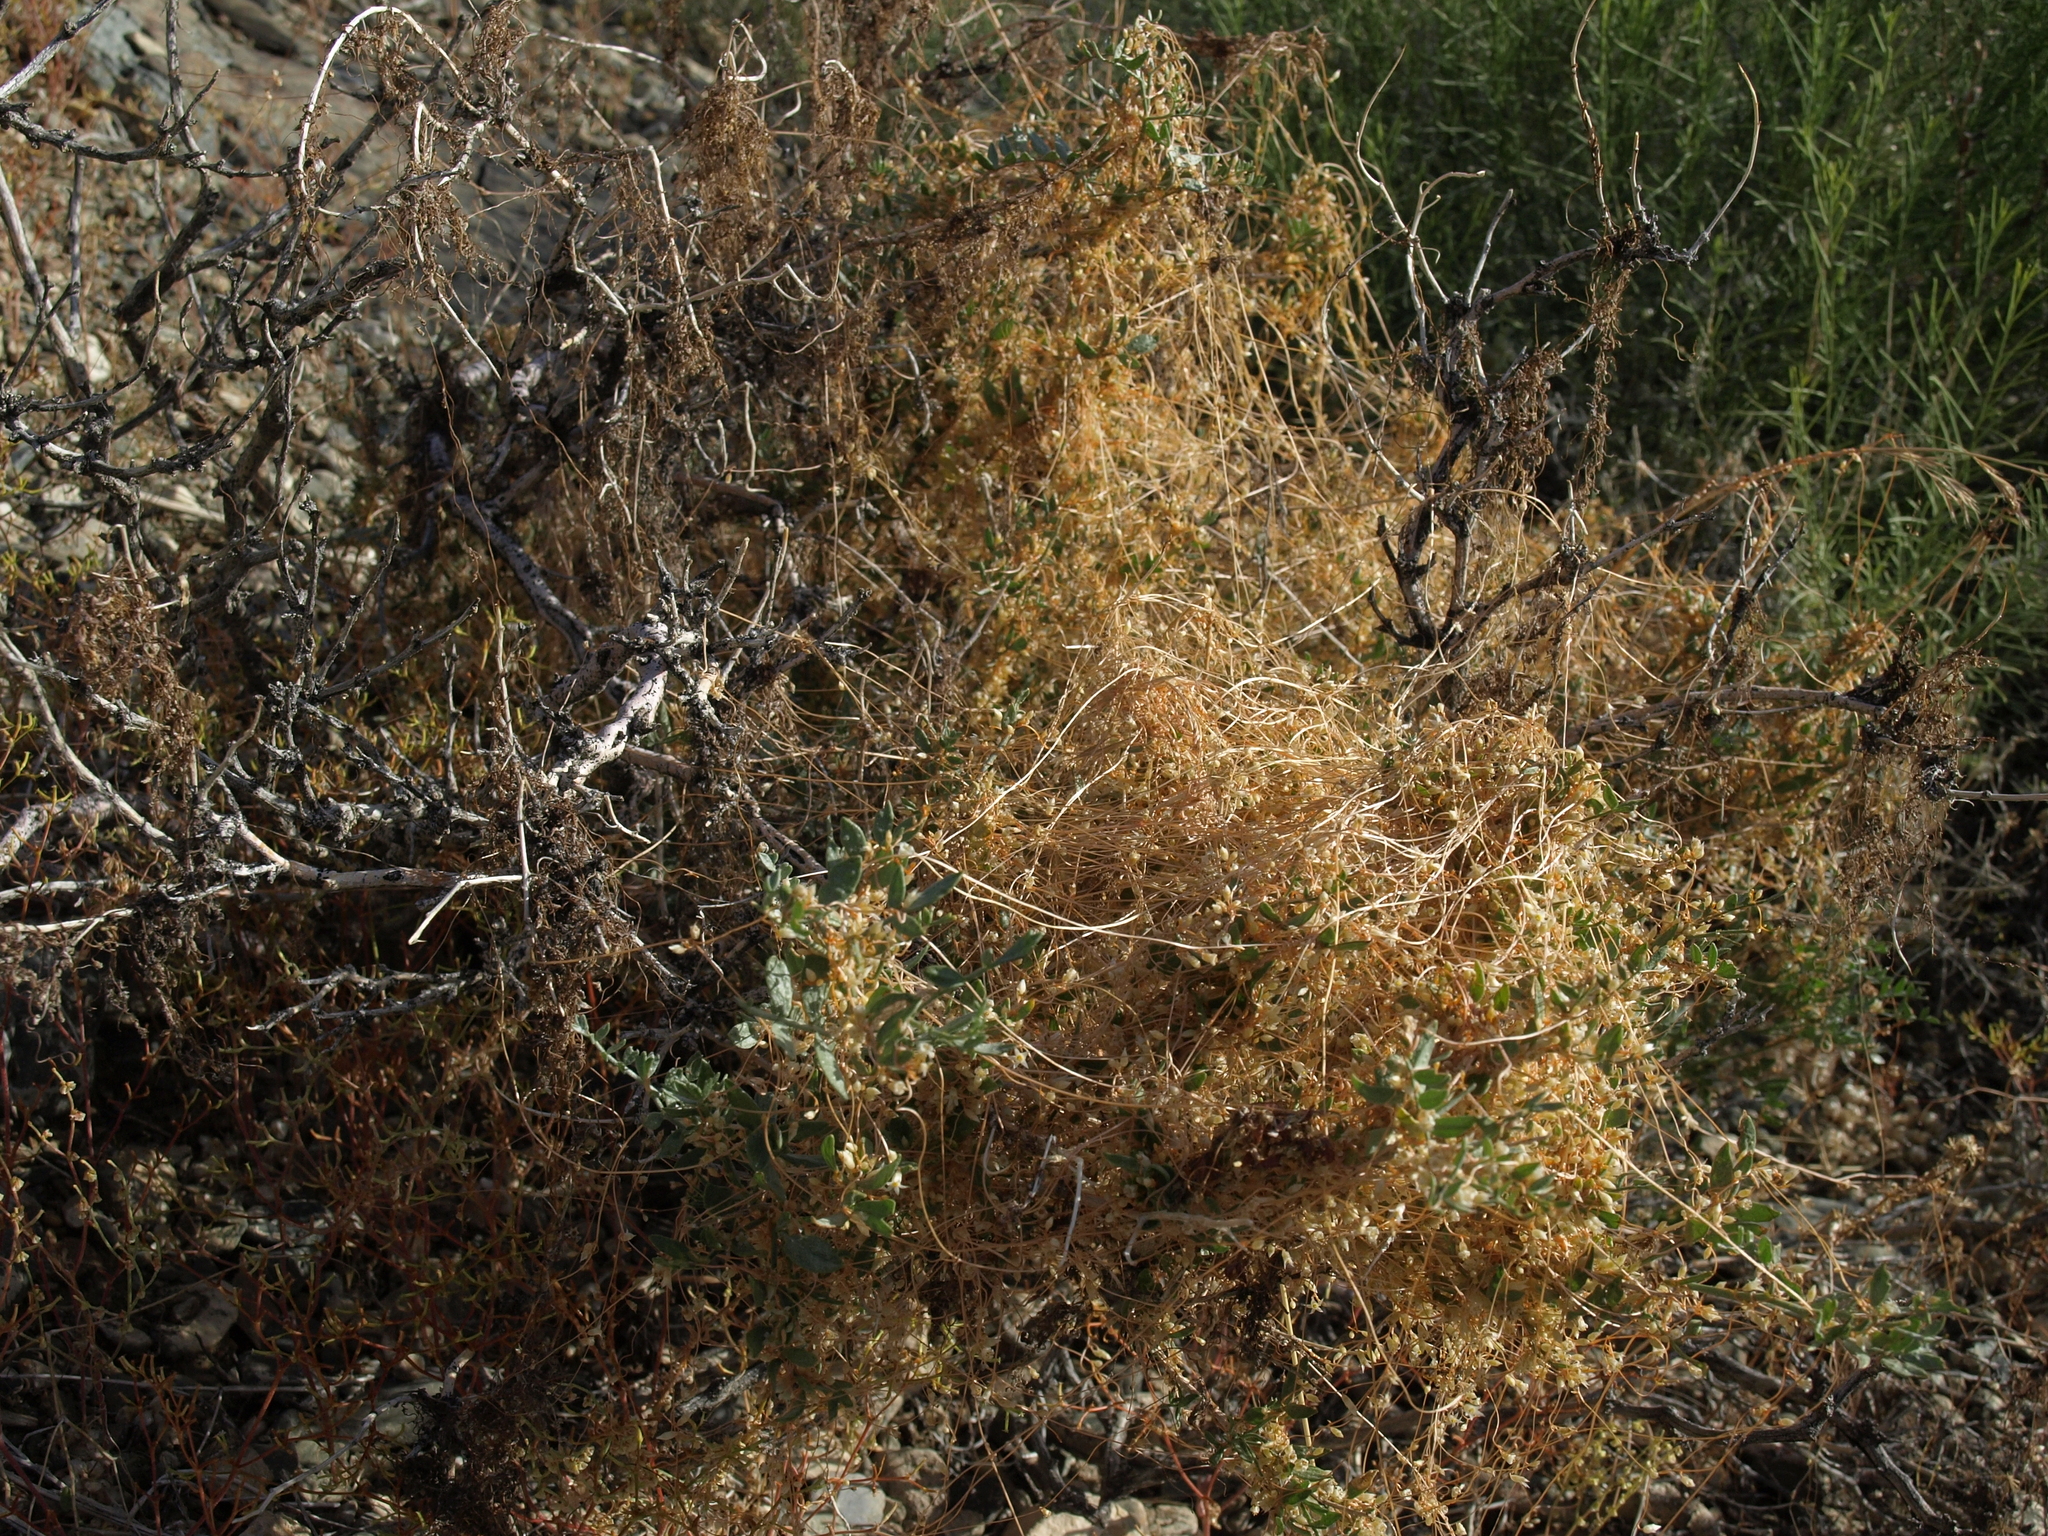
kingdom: Plantae
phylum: Tracheophyta
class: Magnoliopsida
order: Solanales
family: Convolvulaceae
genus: Cuscuta
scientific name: Cuscuta veatchii
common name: Veatch's dodder
